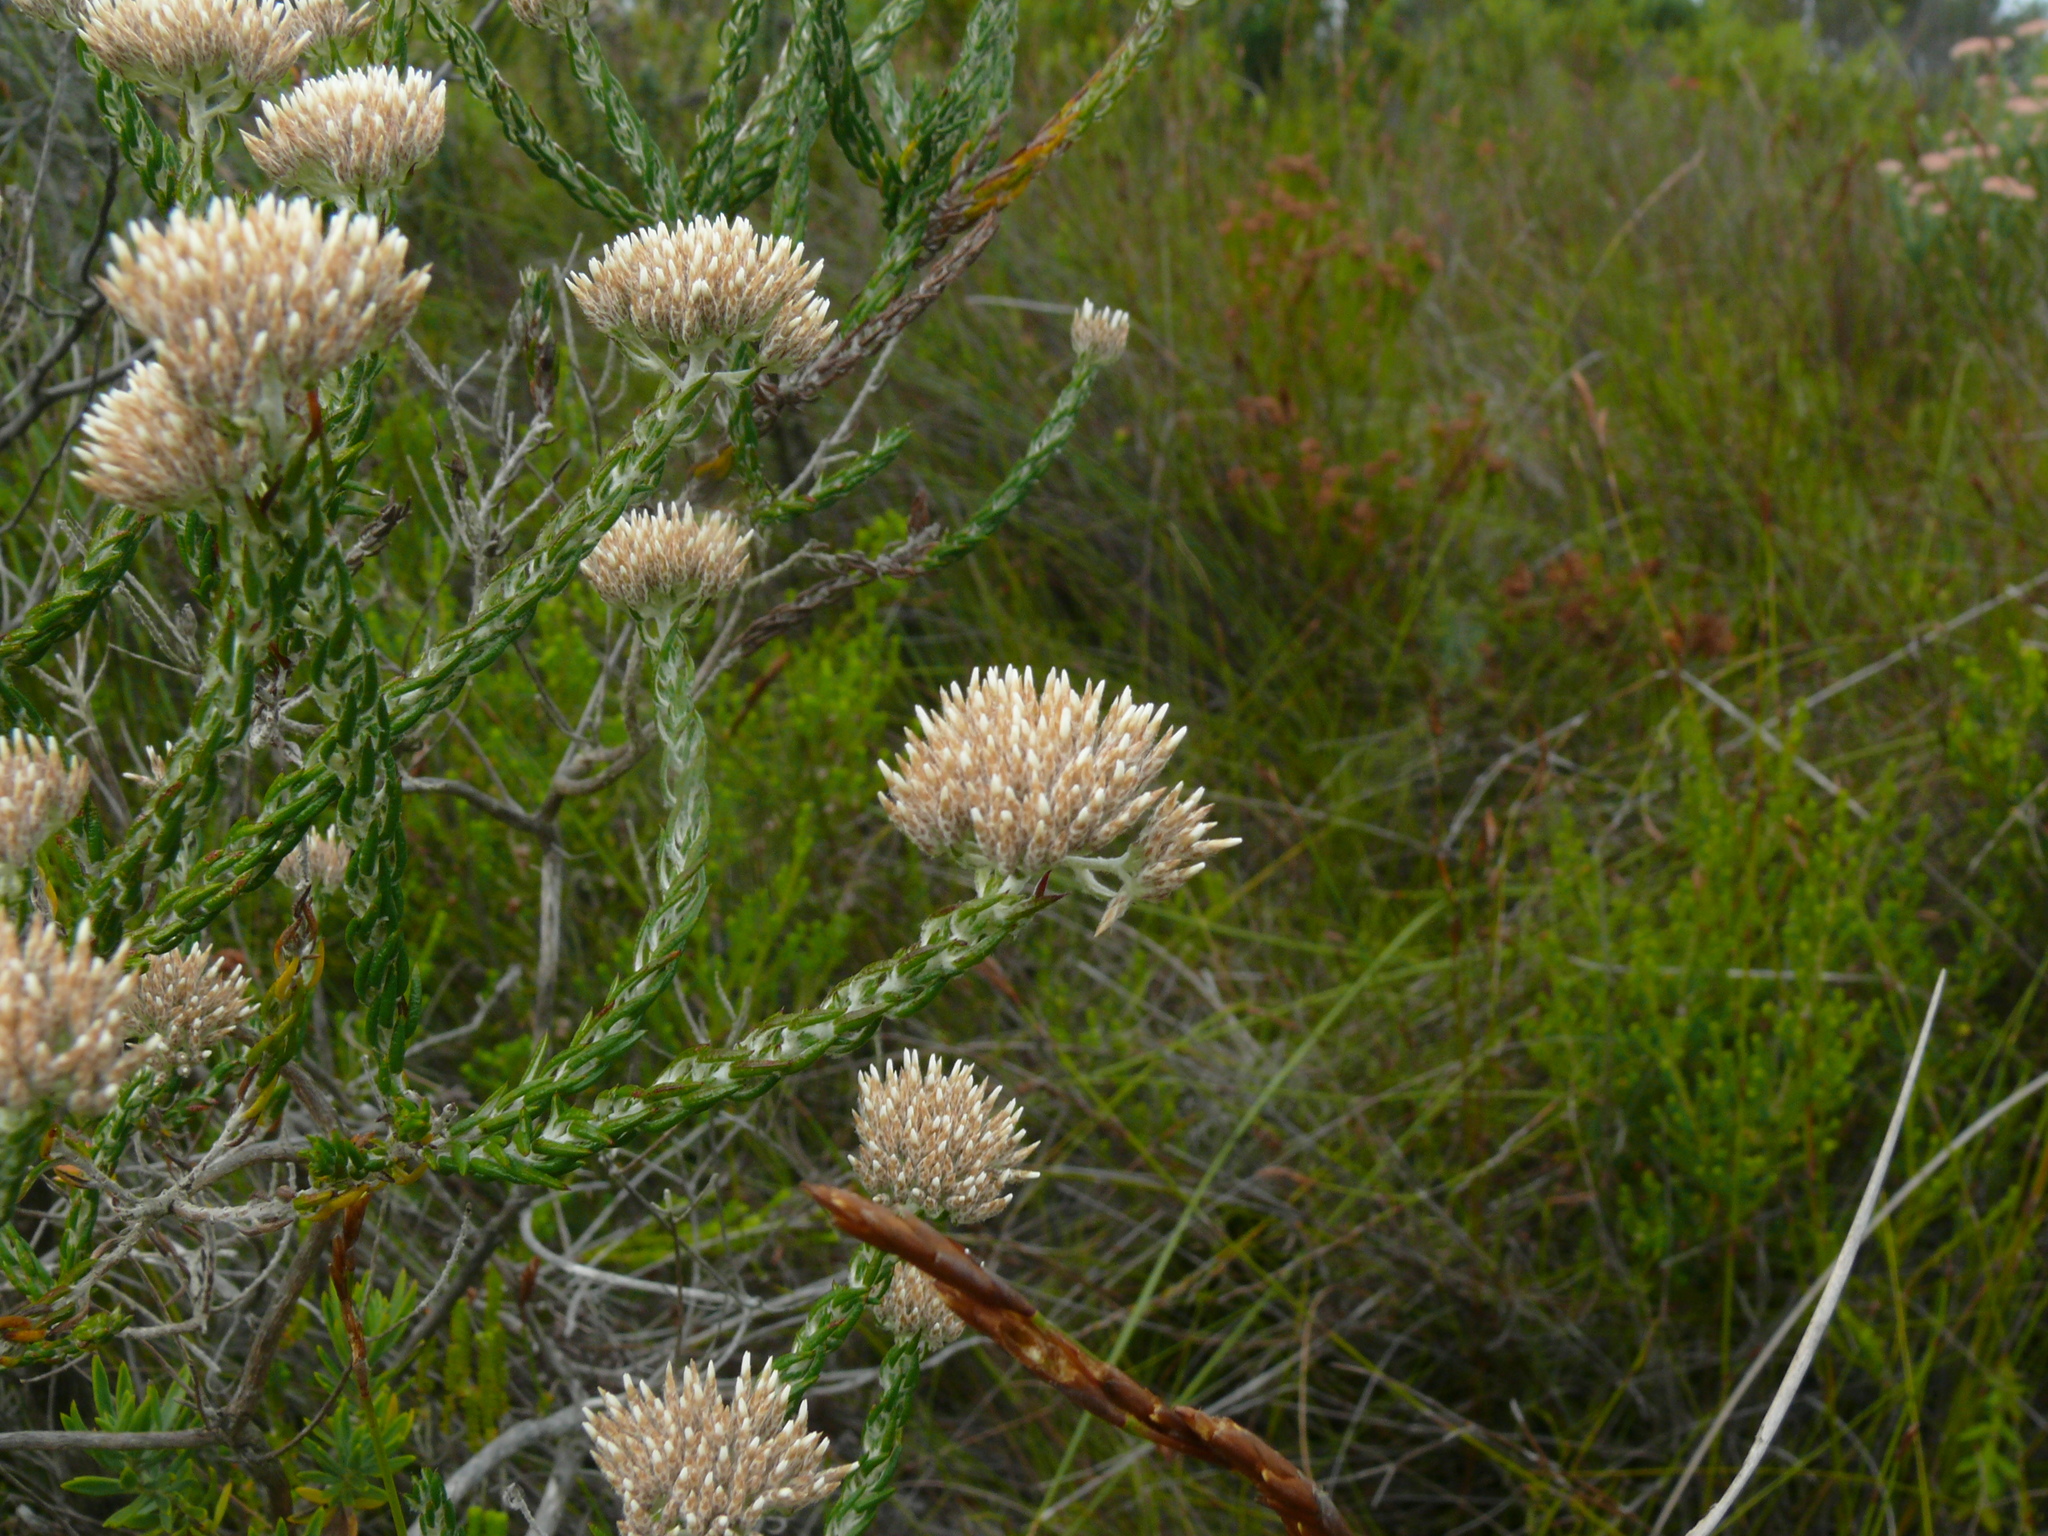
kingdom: Plantae
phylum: Tracheophyta
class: Magnoliopsida
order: Asterales
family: Asteraceae
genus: Metalasia
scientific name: Metalasia pungens
